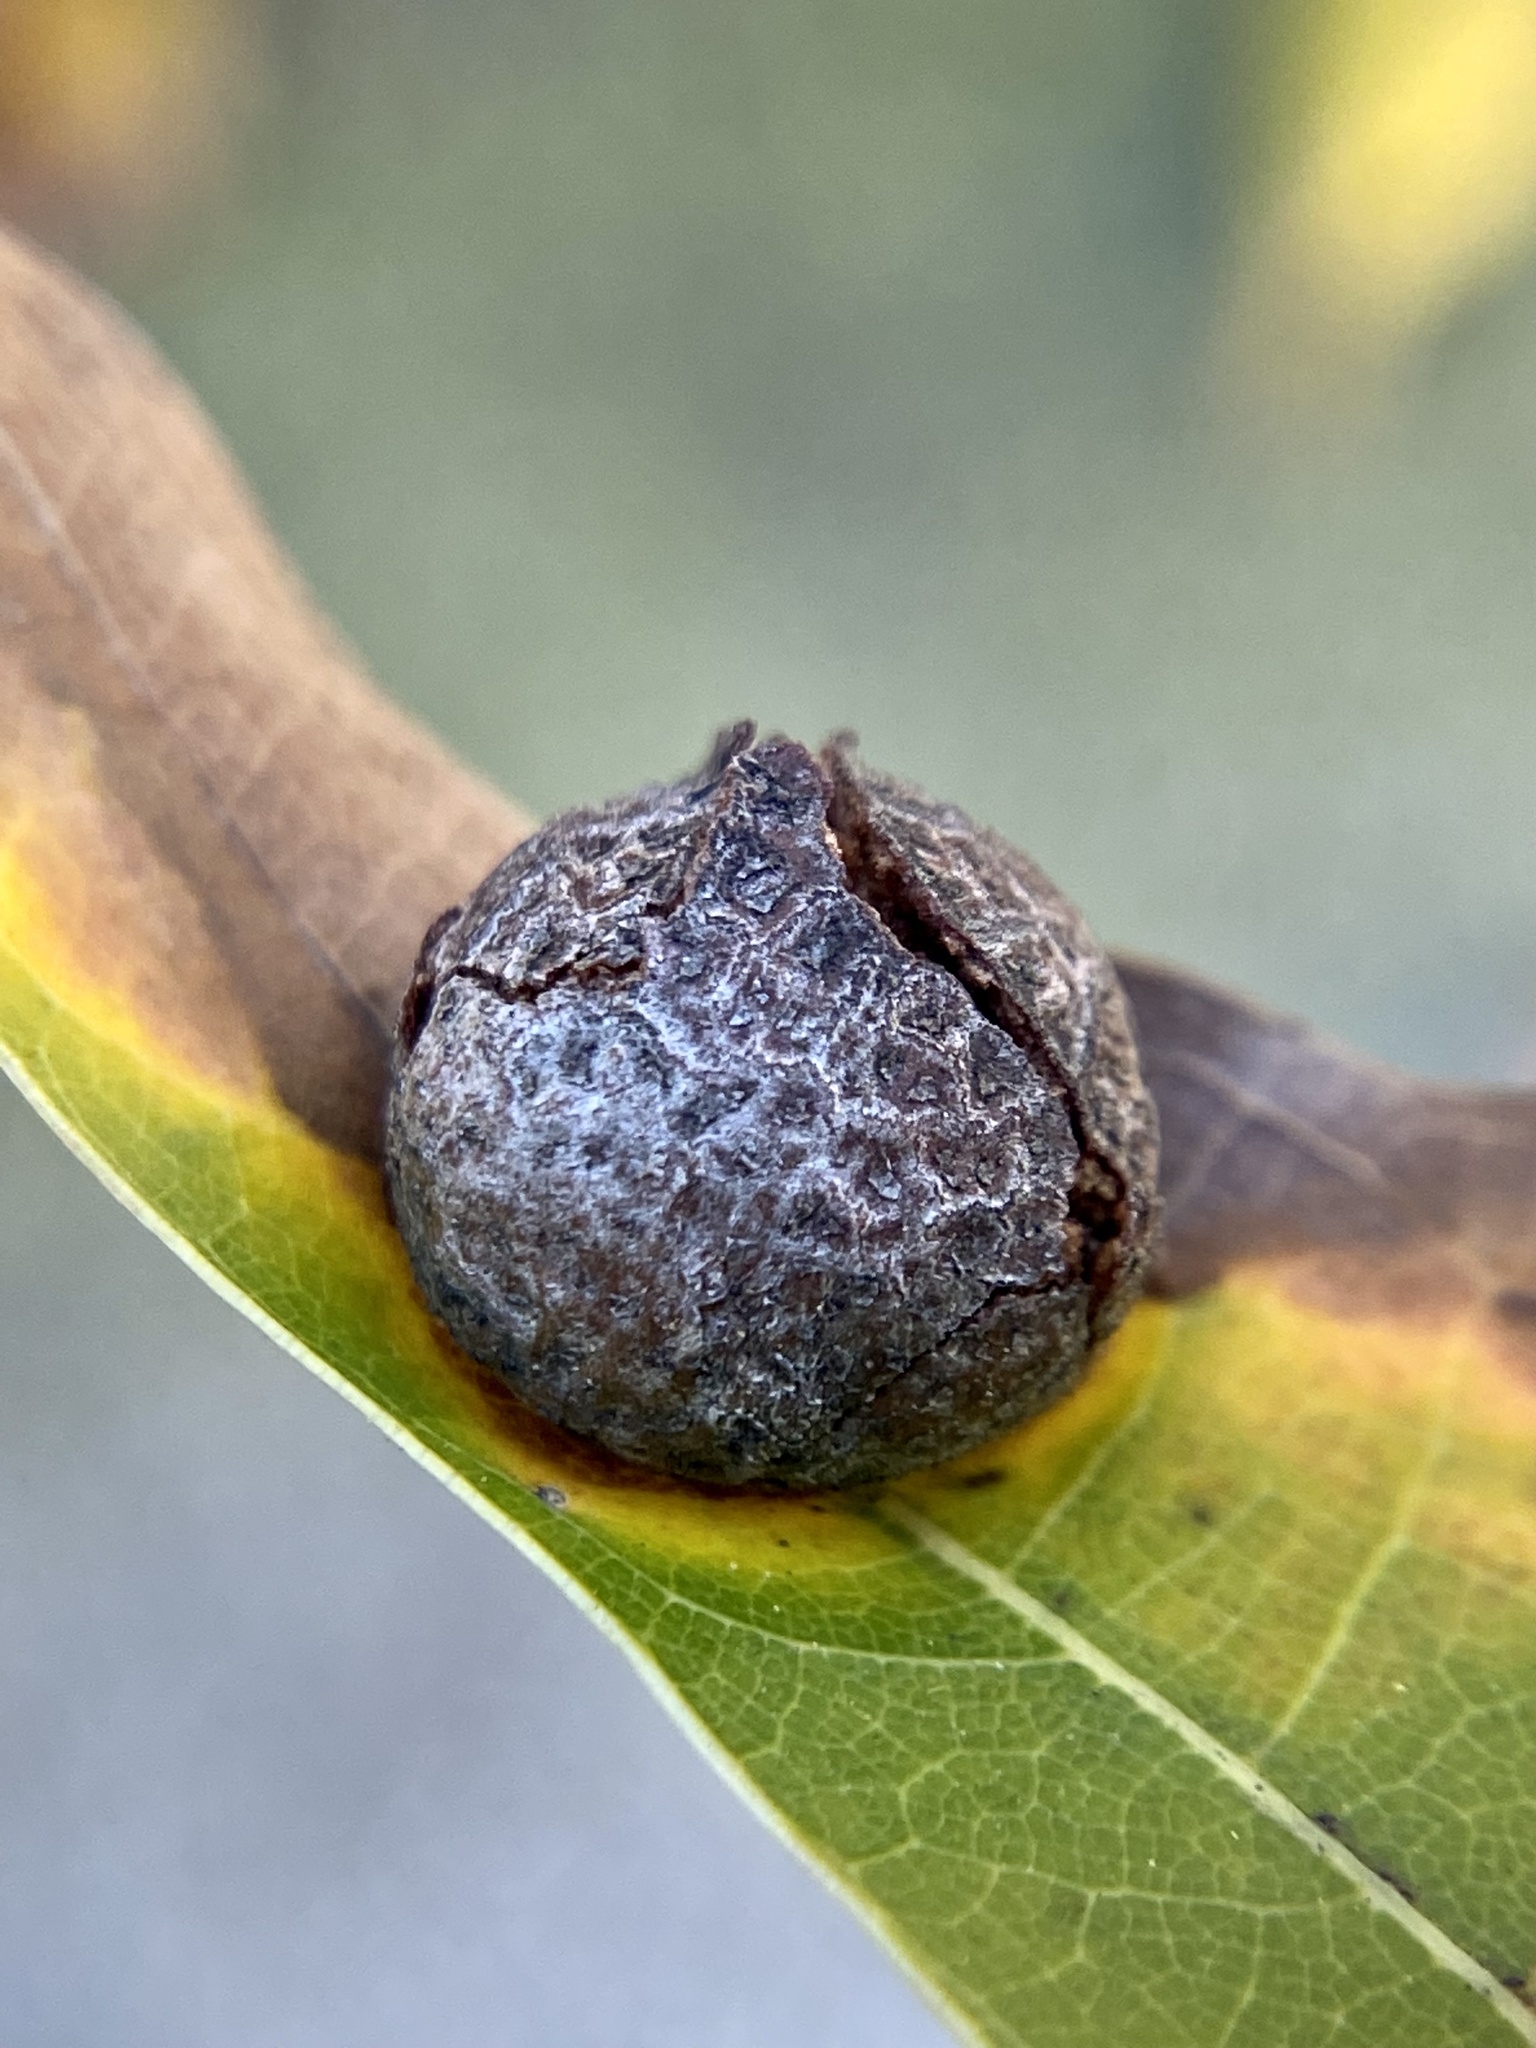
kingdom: Animalia
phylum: Arthropoda
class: Insecta
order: Diptera
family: Cecidomyiidae
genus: Polystepha
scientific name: Polystepha pilulae
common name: Oak leaf gall midge
